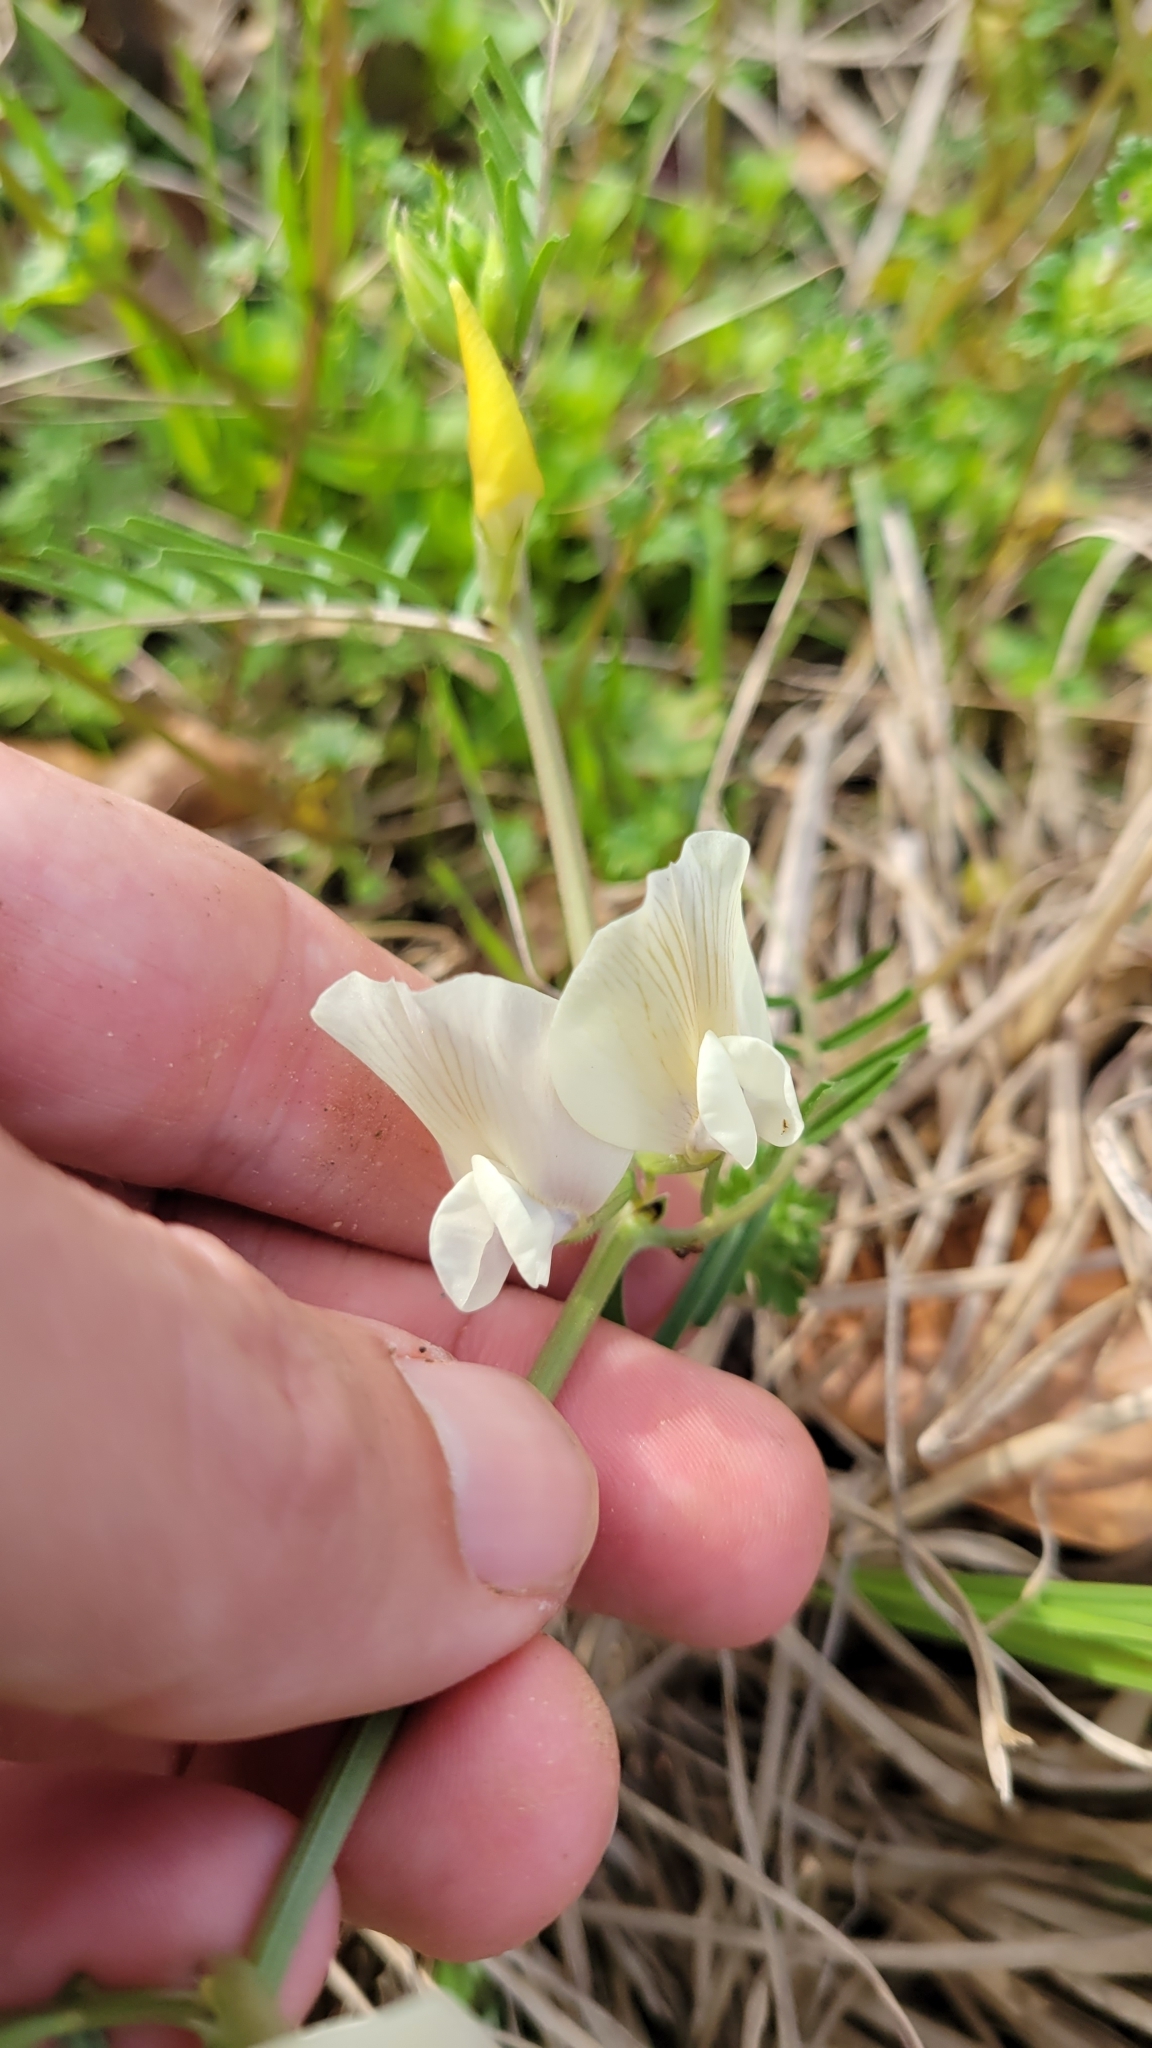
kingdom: Plantae
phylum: Tracheophyta
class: Magnoliopsida
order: Fabales
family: Fabaceae
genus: Vicia
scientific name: Vicia grandiflora
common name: Large yellow vetch
